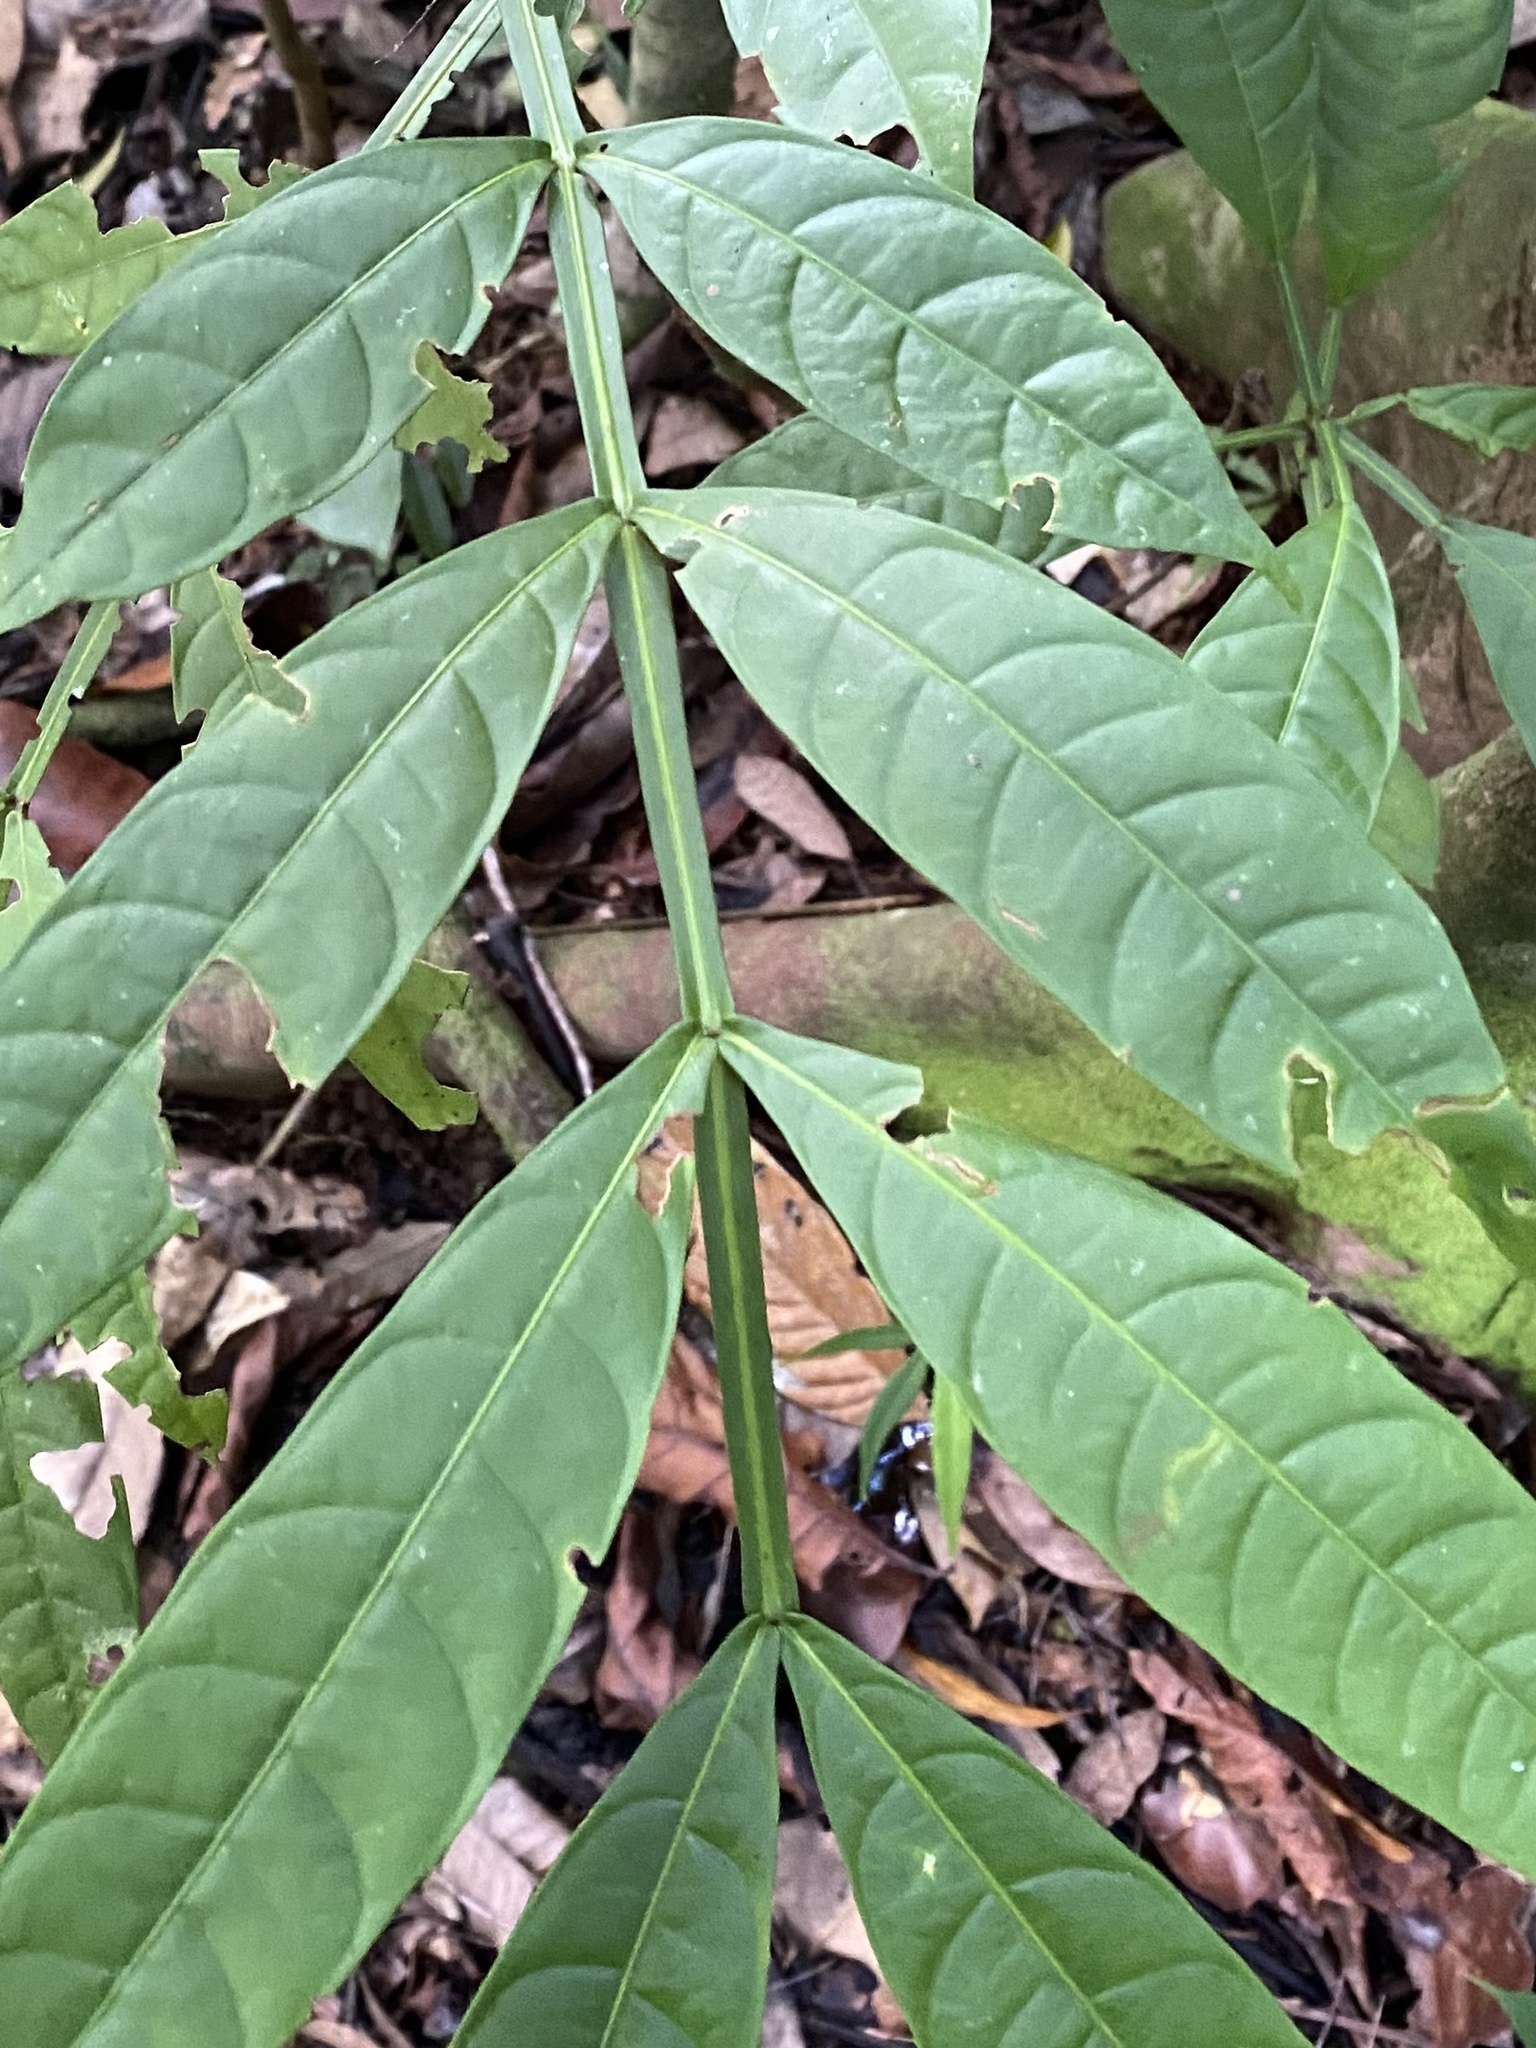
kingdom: Plantae
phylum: Tracheophyta
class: Magnoliopsida
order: Sapindales
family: Meliaceae
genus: Guarea
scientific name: Guarea pterorhachis
